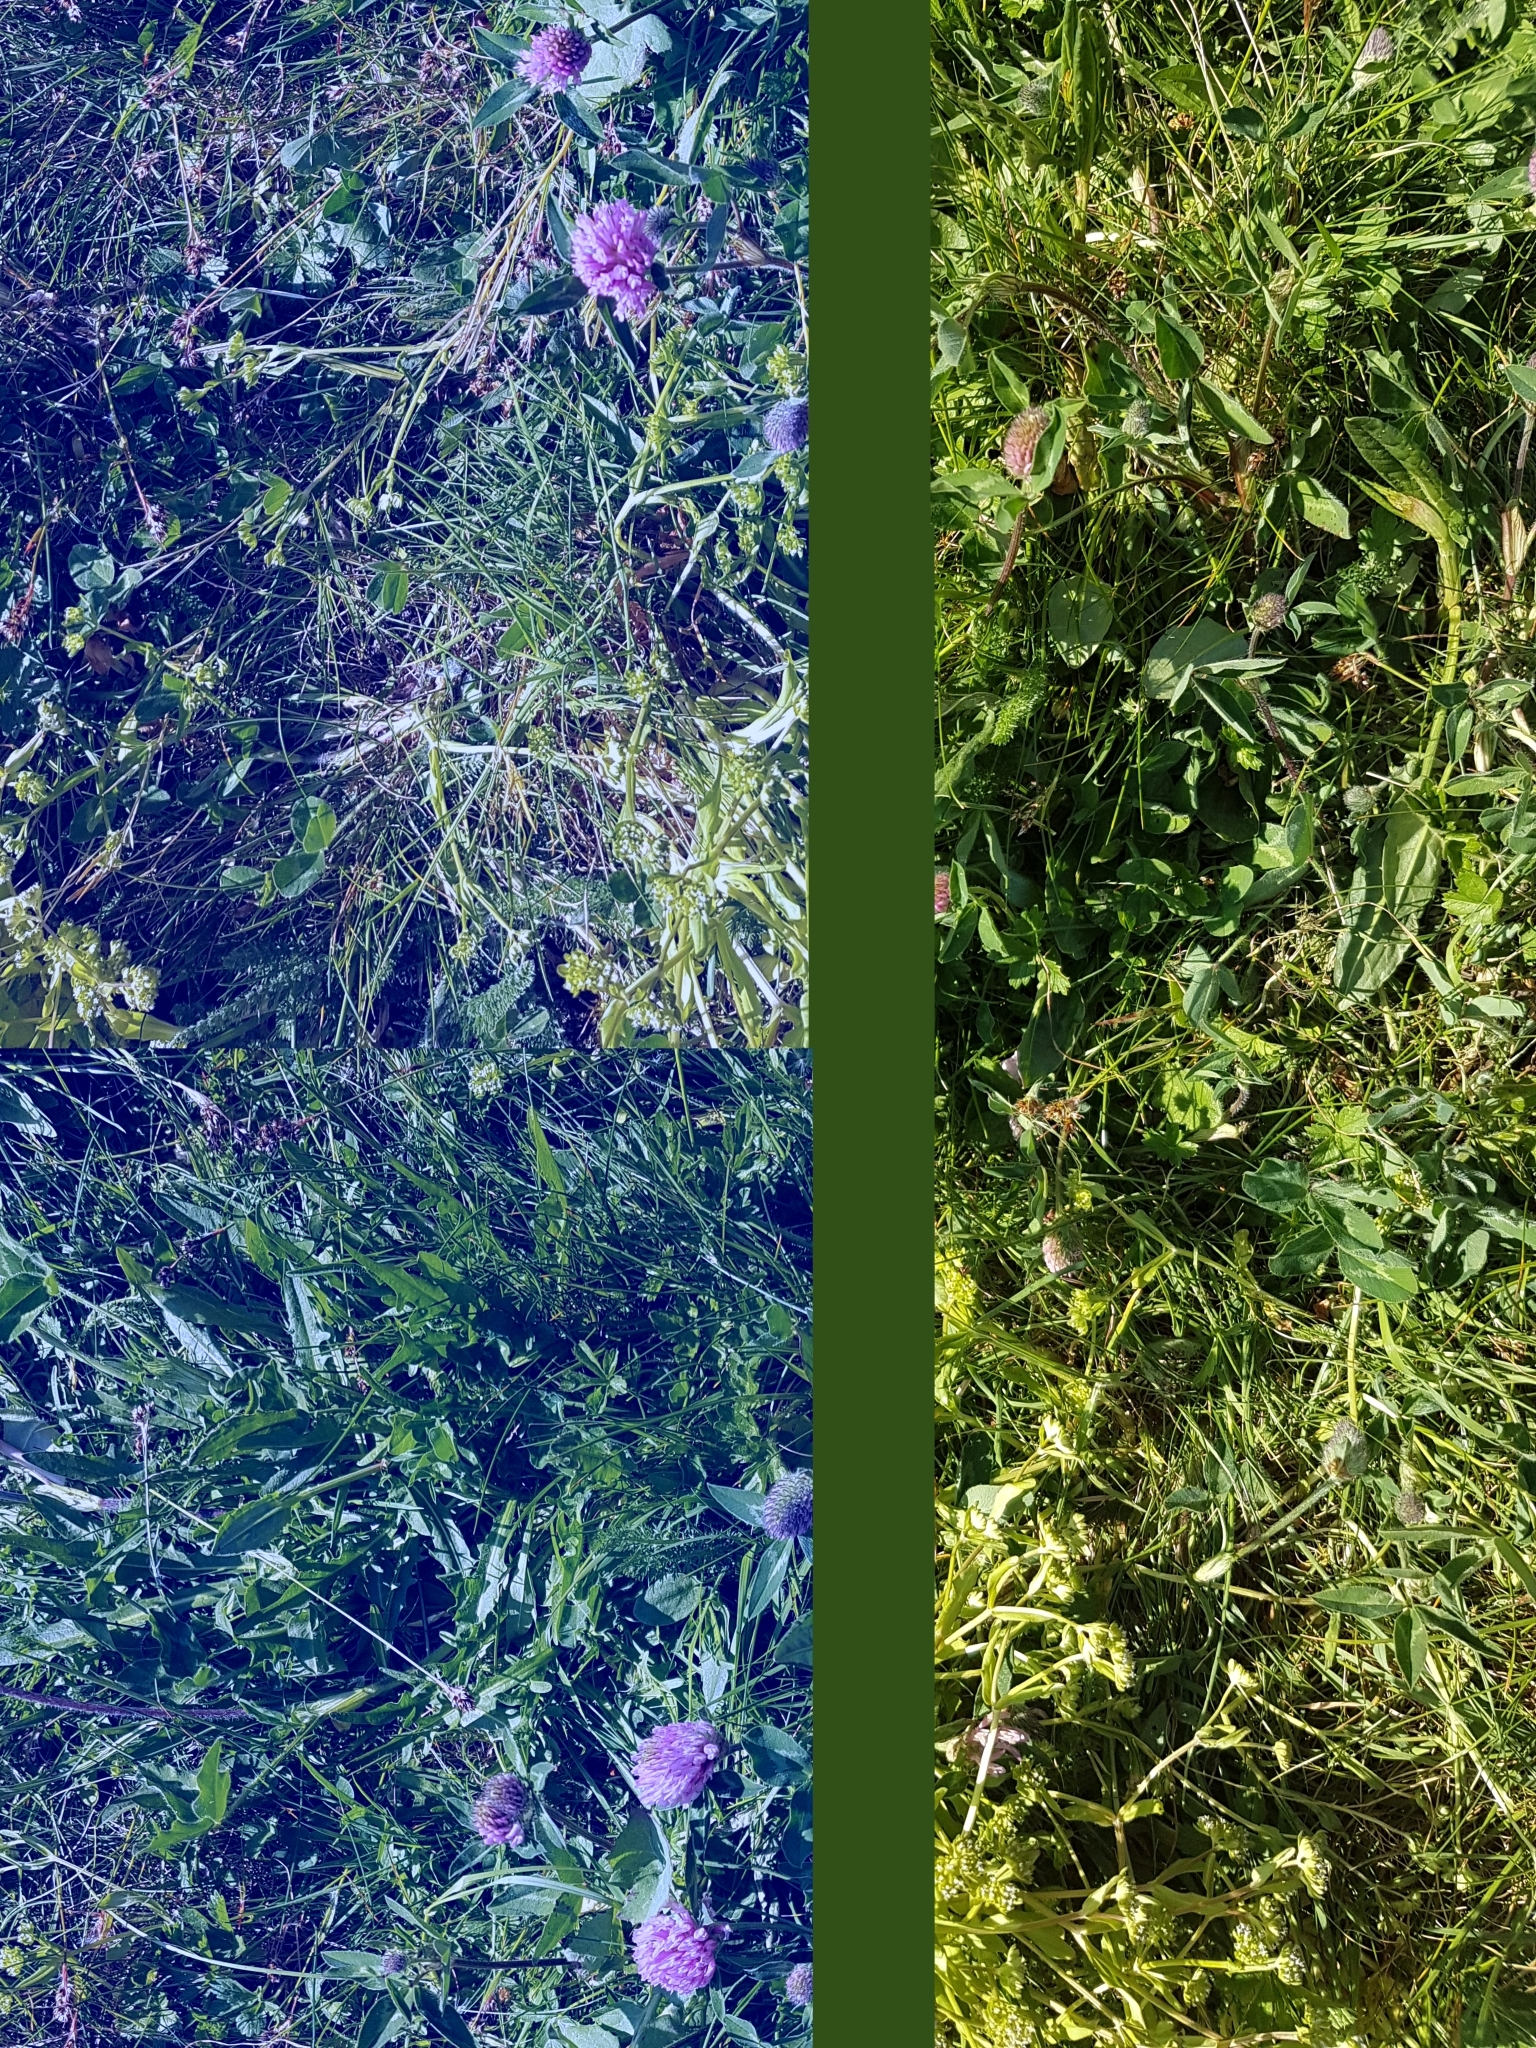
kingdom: Plantae
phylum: Tracheophyta
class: Magnoliopsida
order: Fabales
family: Fabaceae
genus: Trifolium
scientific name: Trifolium pratense
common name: Red clover
